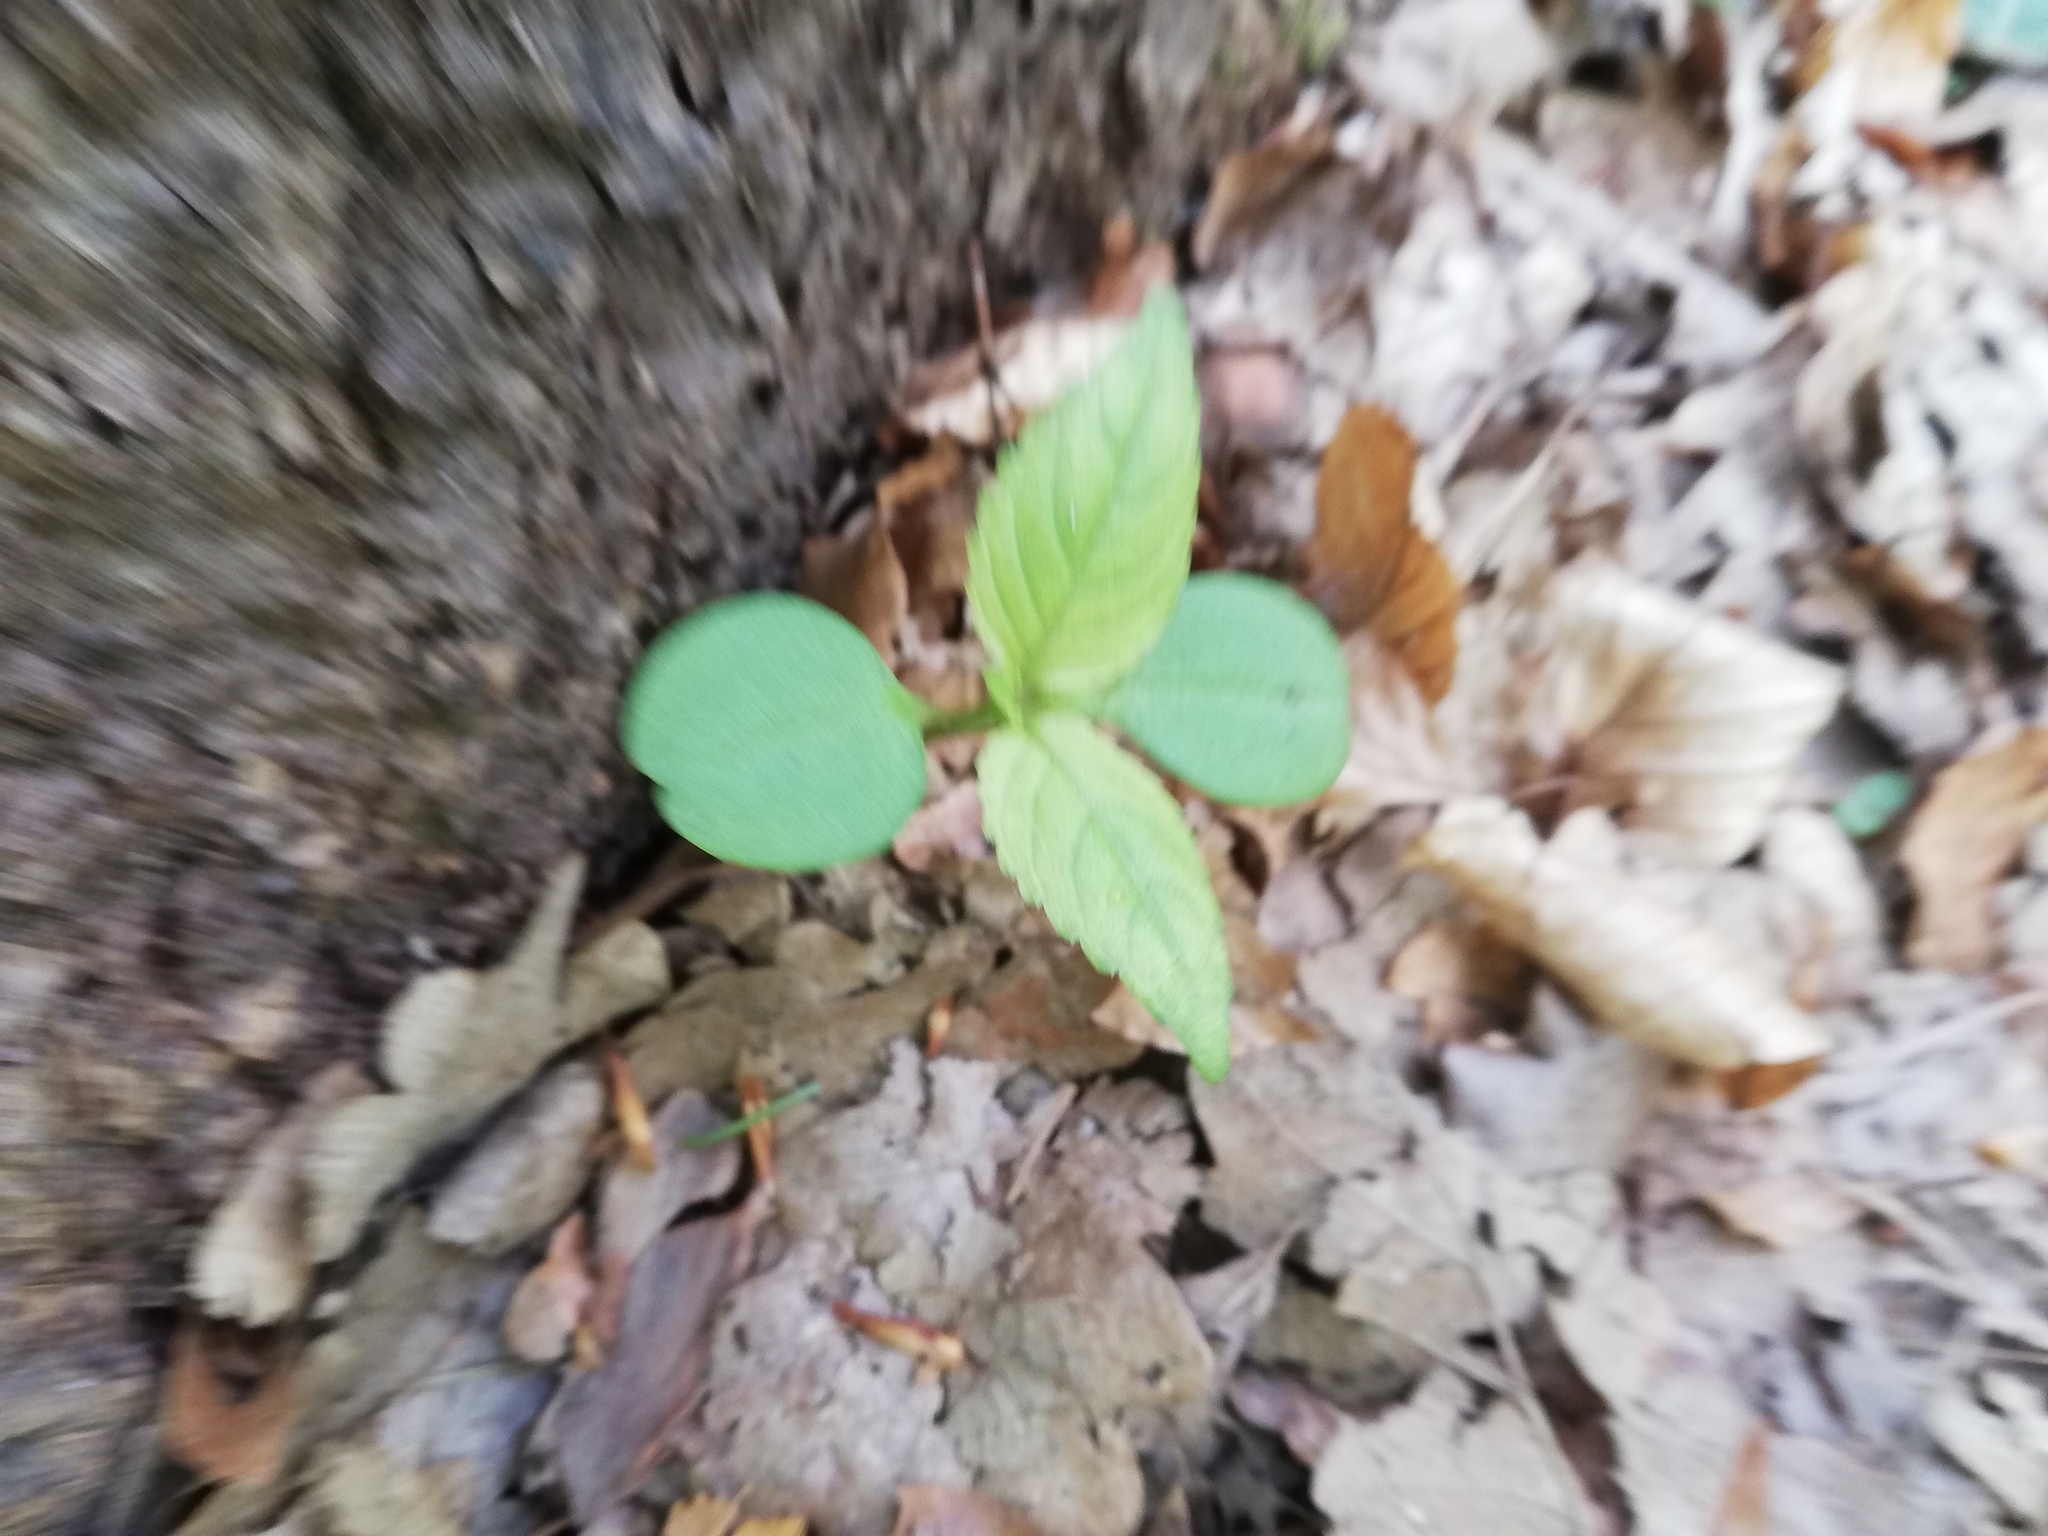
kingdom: Plantae
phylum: Tracheophyta
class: Magnoliopsida
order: Ericales
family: Balsaminaceae
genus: Impatiens
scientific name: Impatiens parviflora
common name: Small balsam
